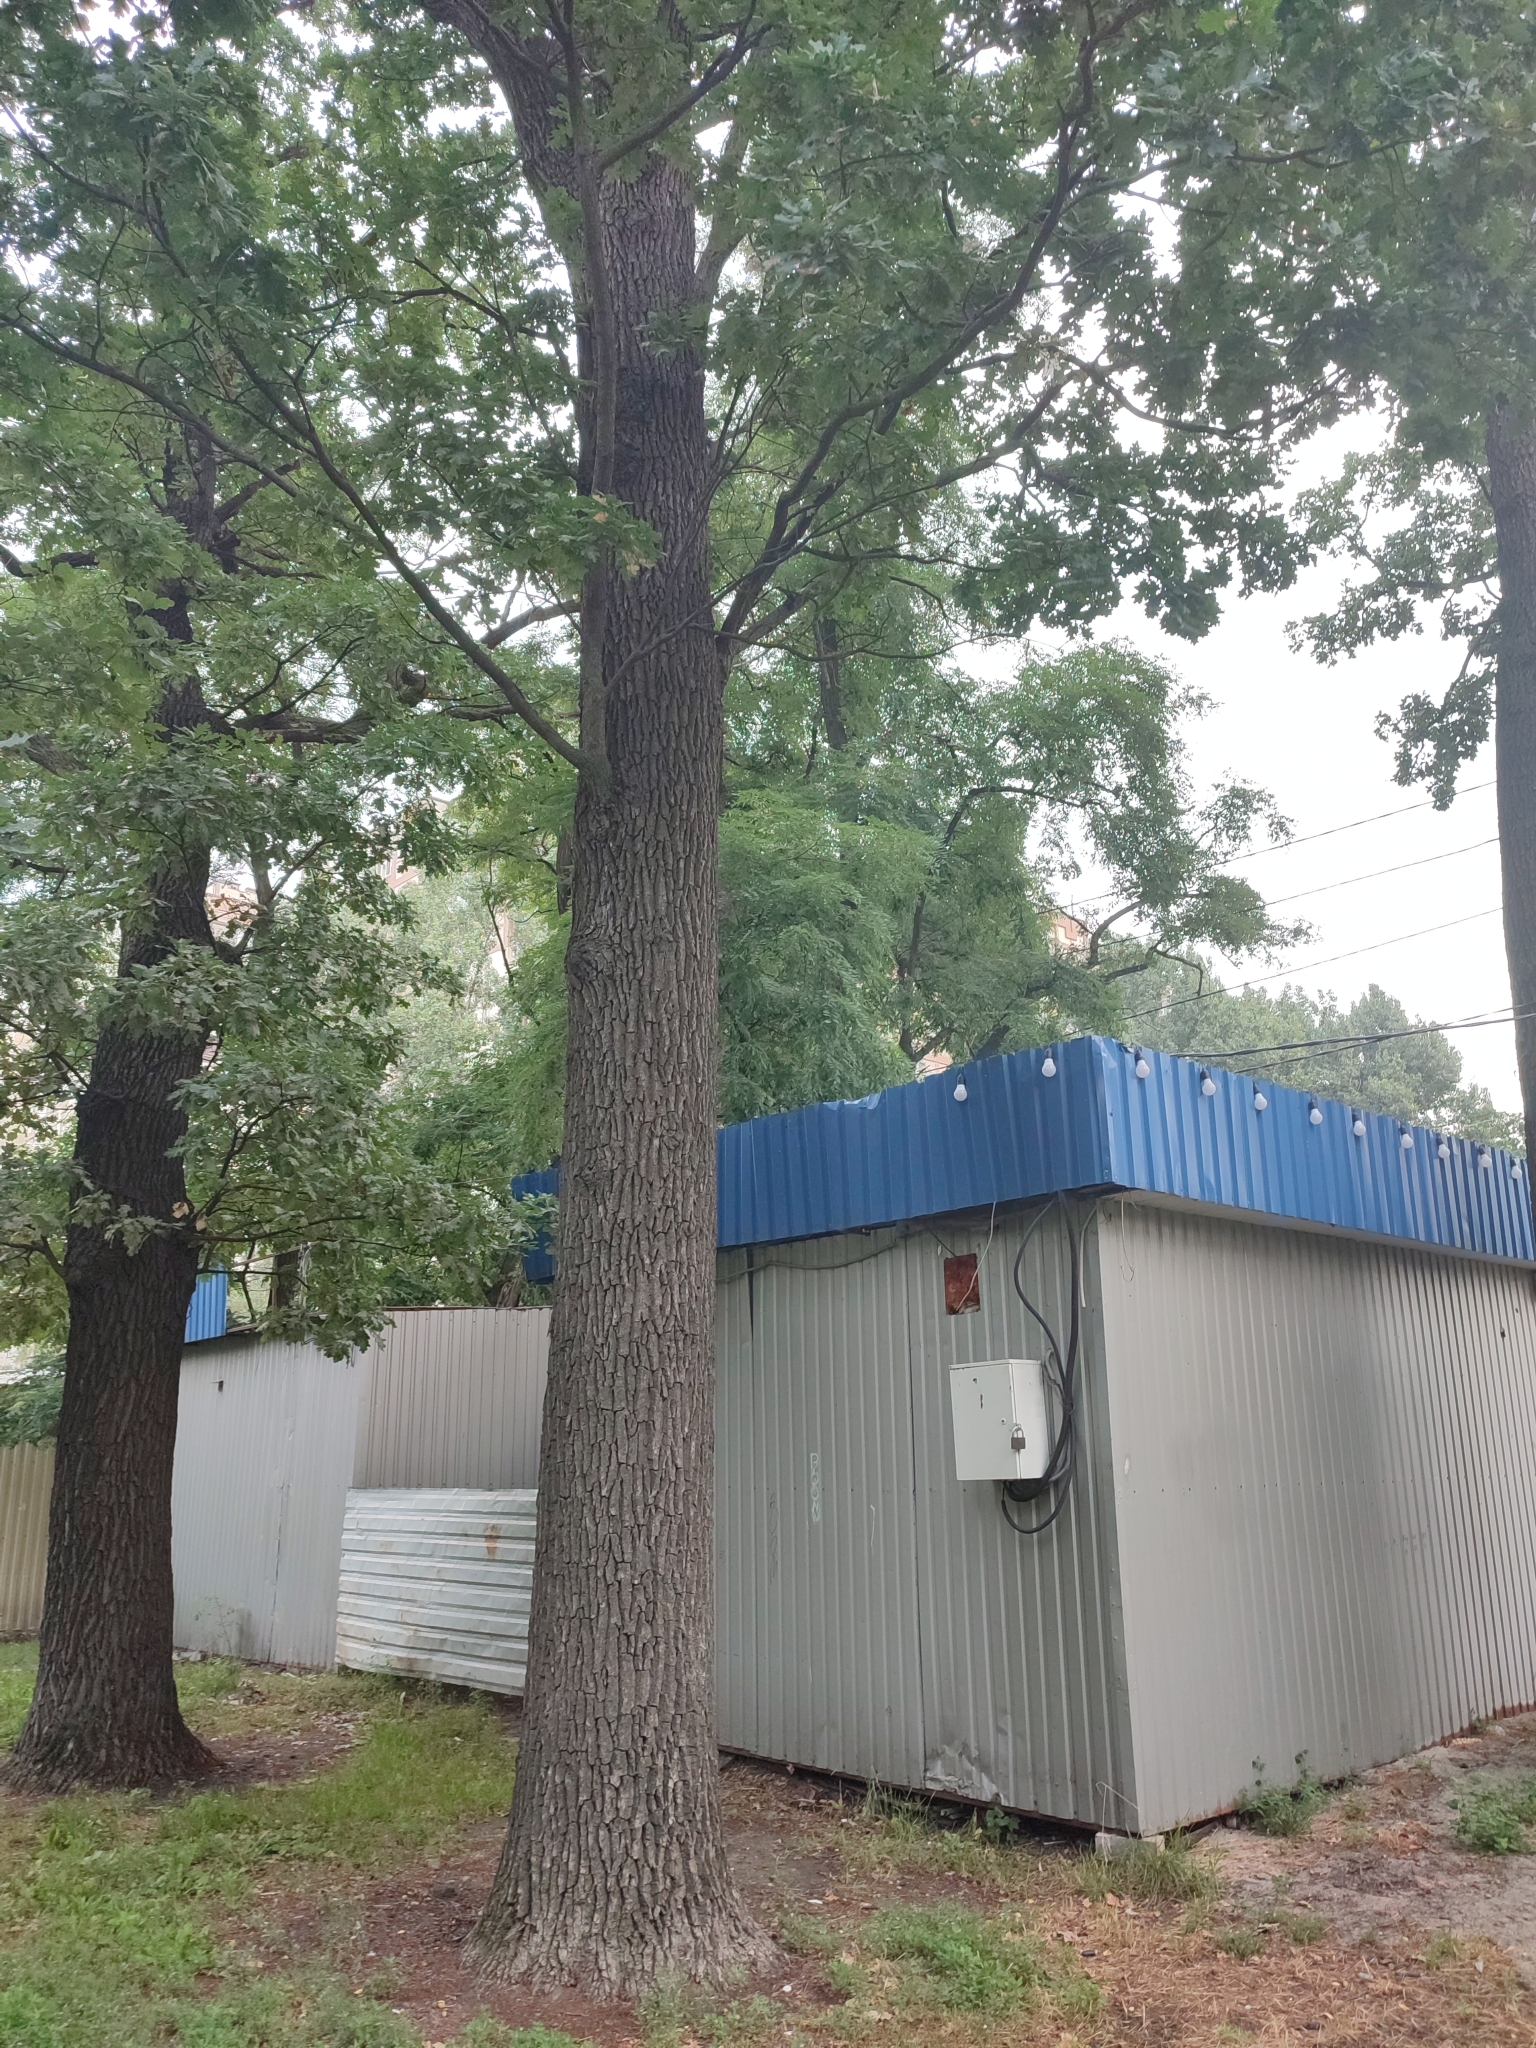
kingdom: Plantae
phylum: Tracheophyta
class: Magnoliopsida
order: Fagales
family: Fagaceae
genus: Quercus
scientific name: Quercus robur
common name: Pedunculate oak
